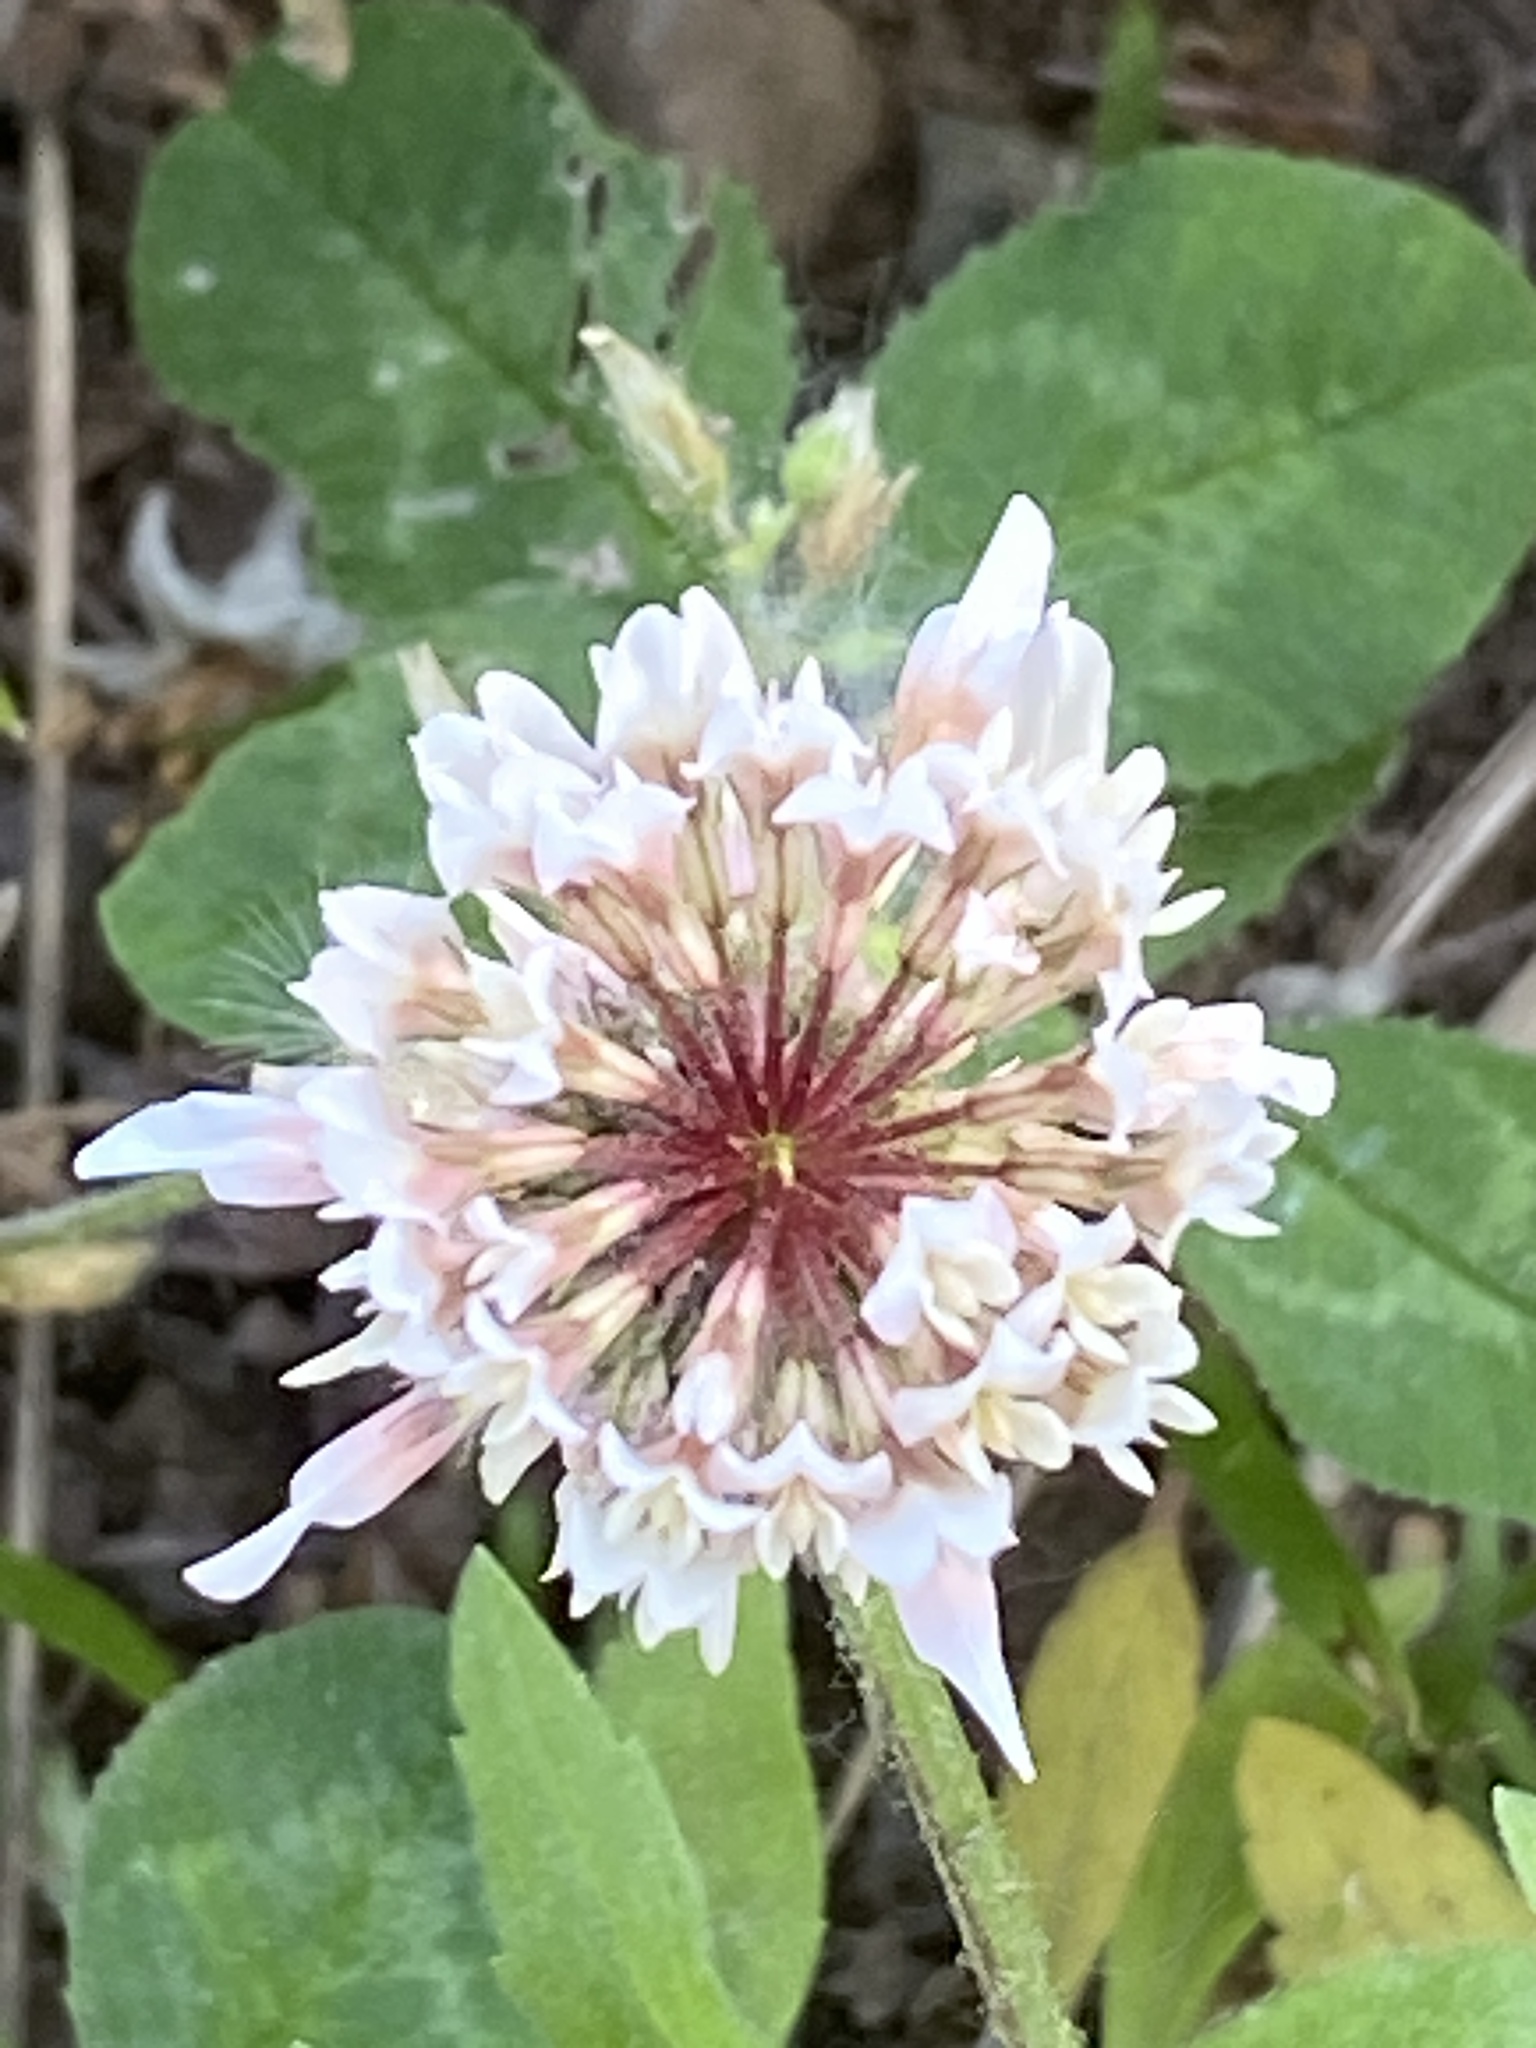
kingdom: Plantae
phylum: Tracheophyta
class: Magnoliopsida
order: Fabales
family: Fabaceae
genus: Trifolium
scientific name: Trifolium repens
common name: White clover
